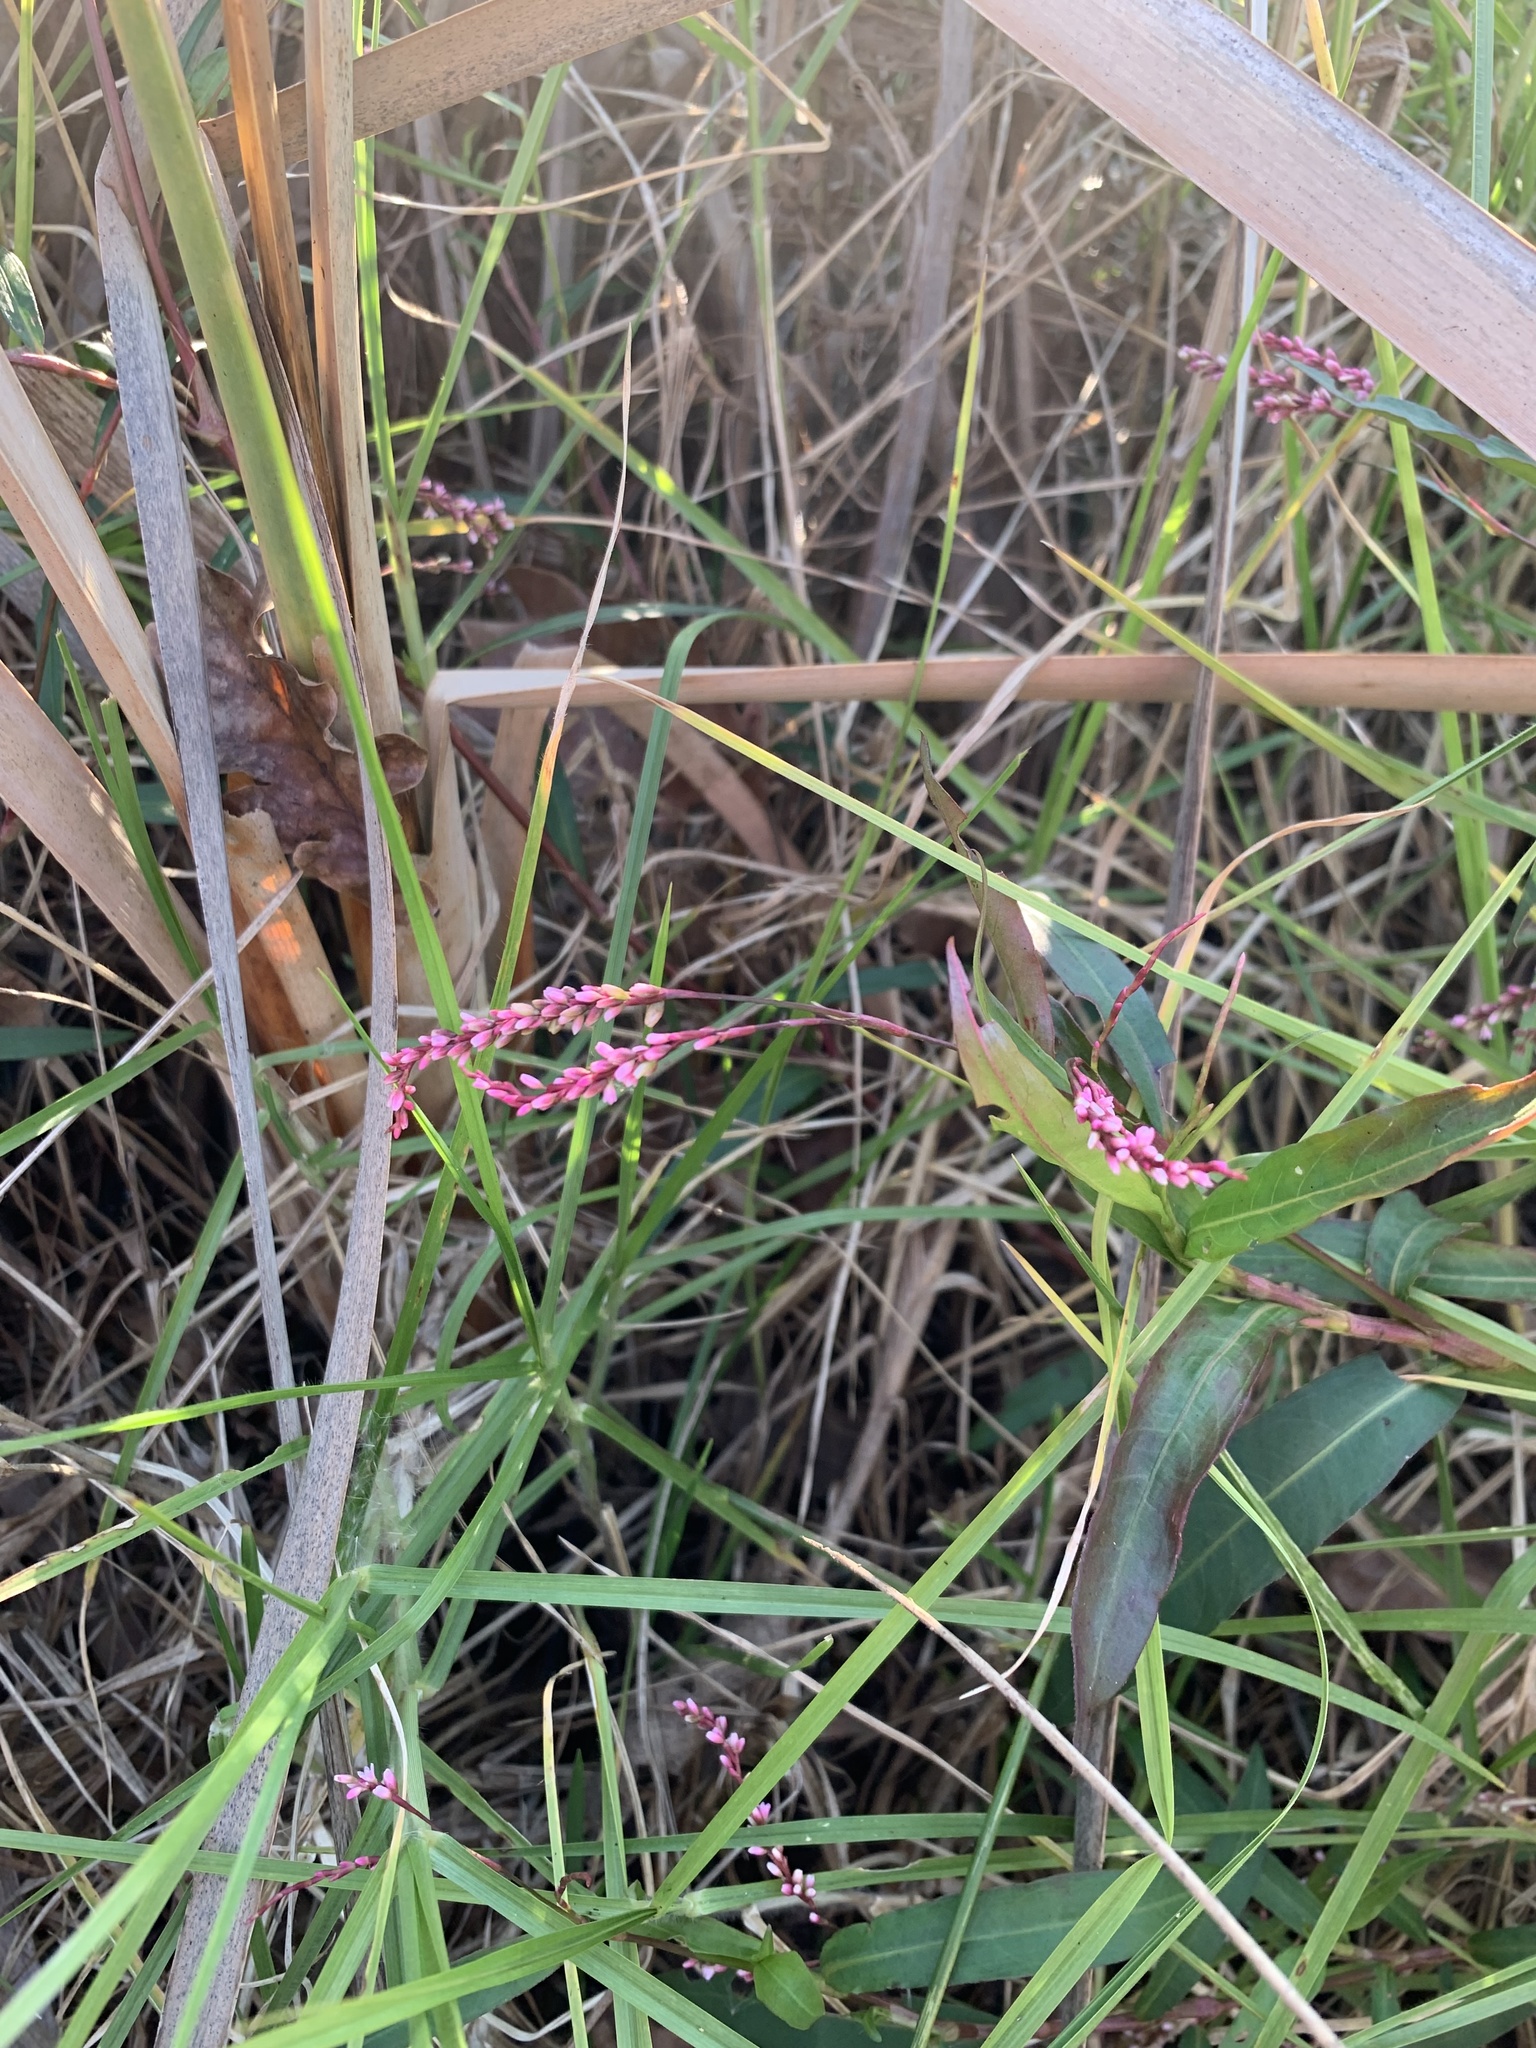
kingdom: Plantae
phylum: Tracheophyta
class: Magnoliopsida
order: Caryophyllales
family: Polygonaceae
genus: Persicaria
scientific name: Persicaria decipiens
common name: Willow-weed
